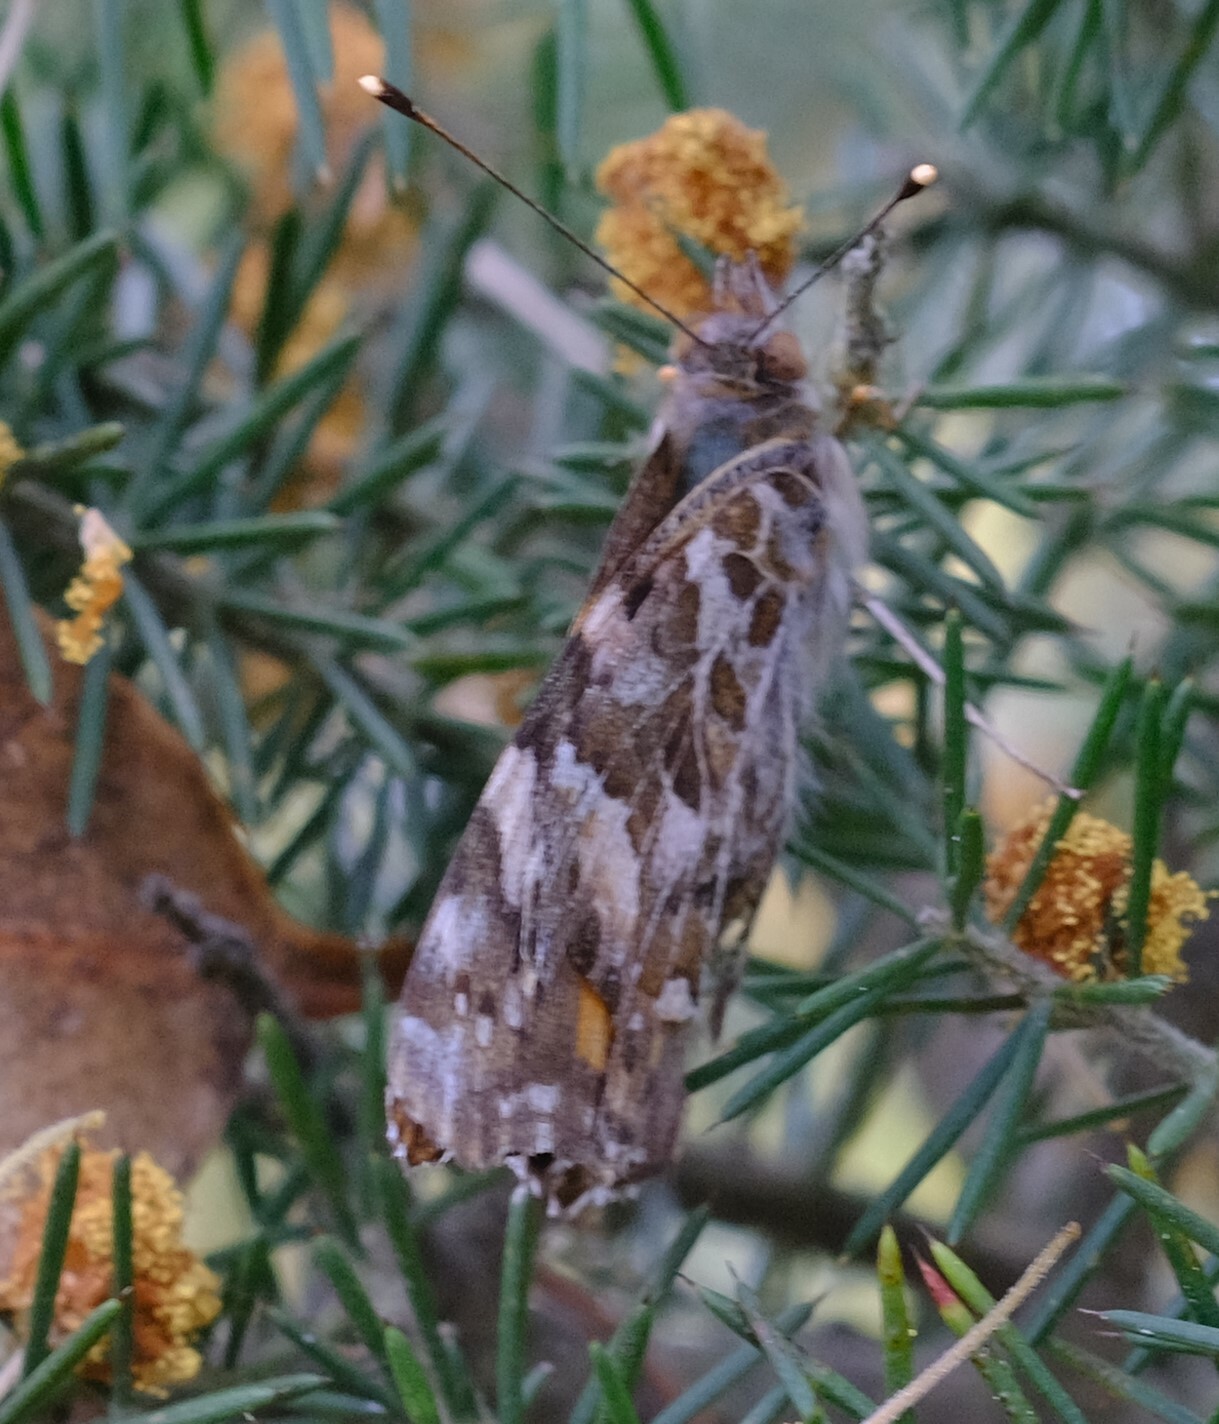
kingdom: Animalia
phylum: Arthropoda
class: Insecta
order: Lepidoptera
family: Nymphalidae
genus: Vanessa
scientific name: Vanessa kershawi
